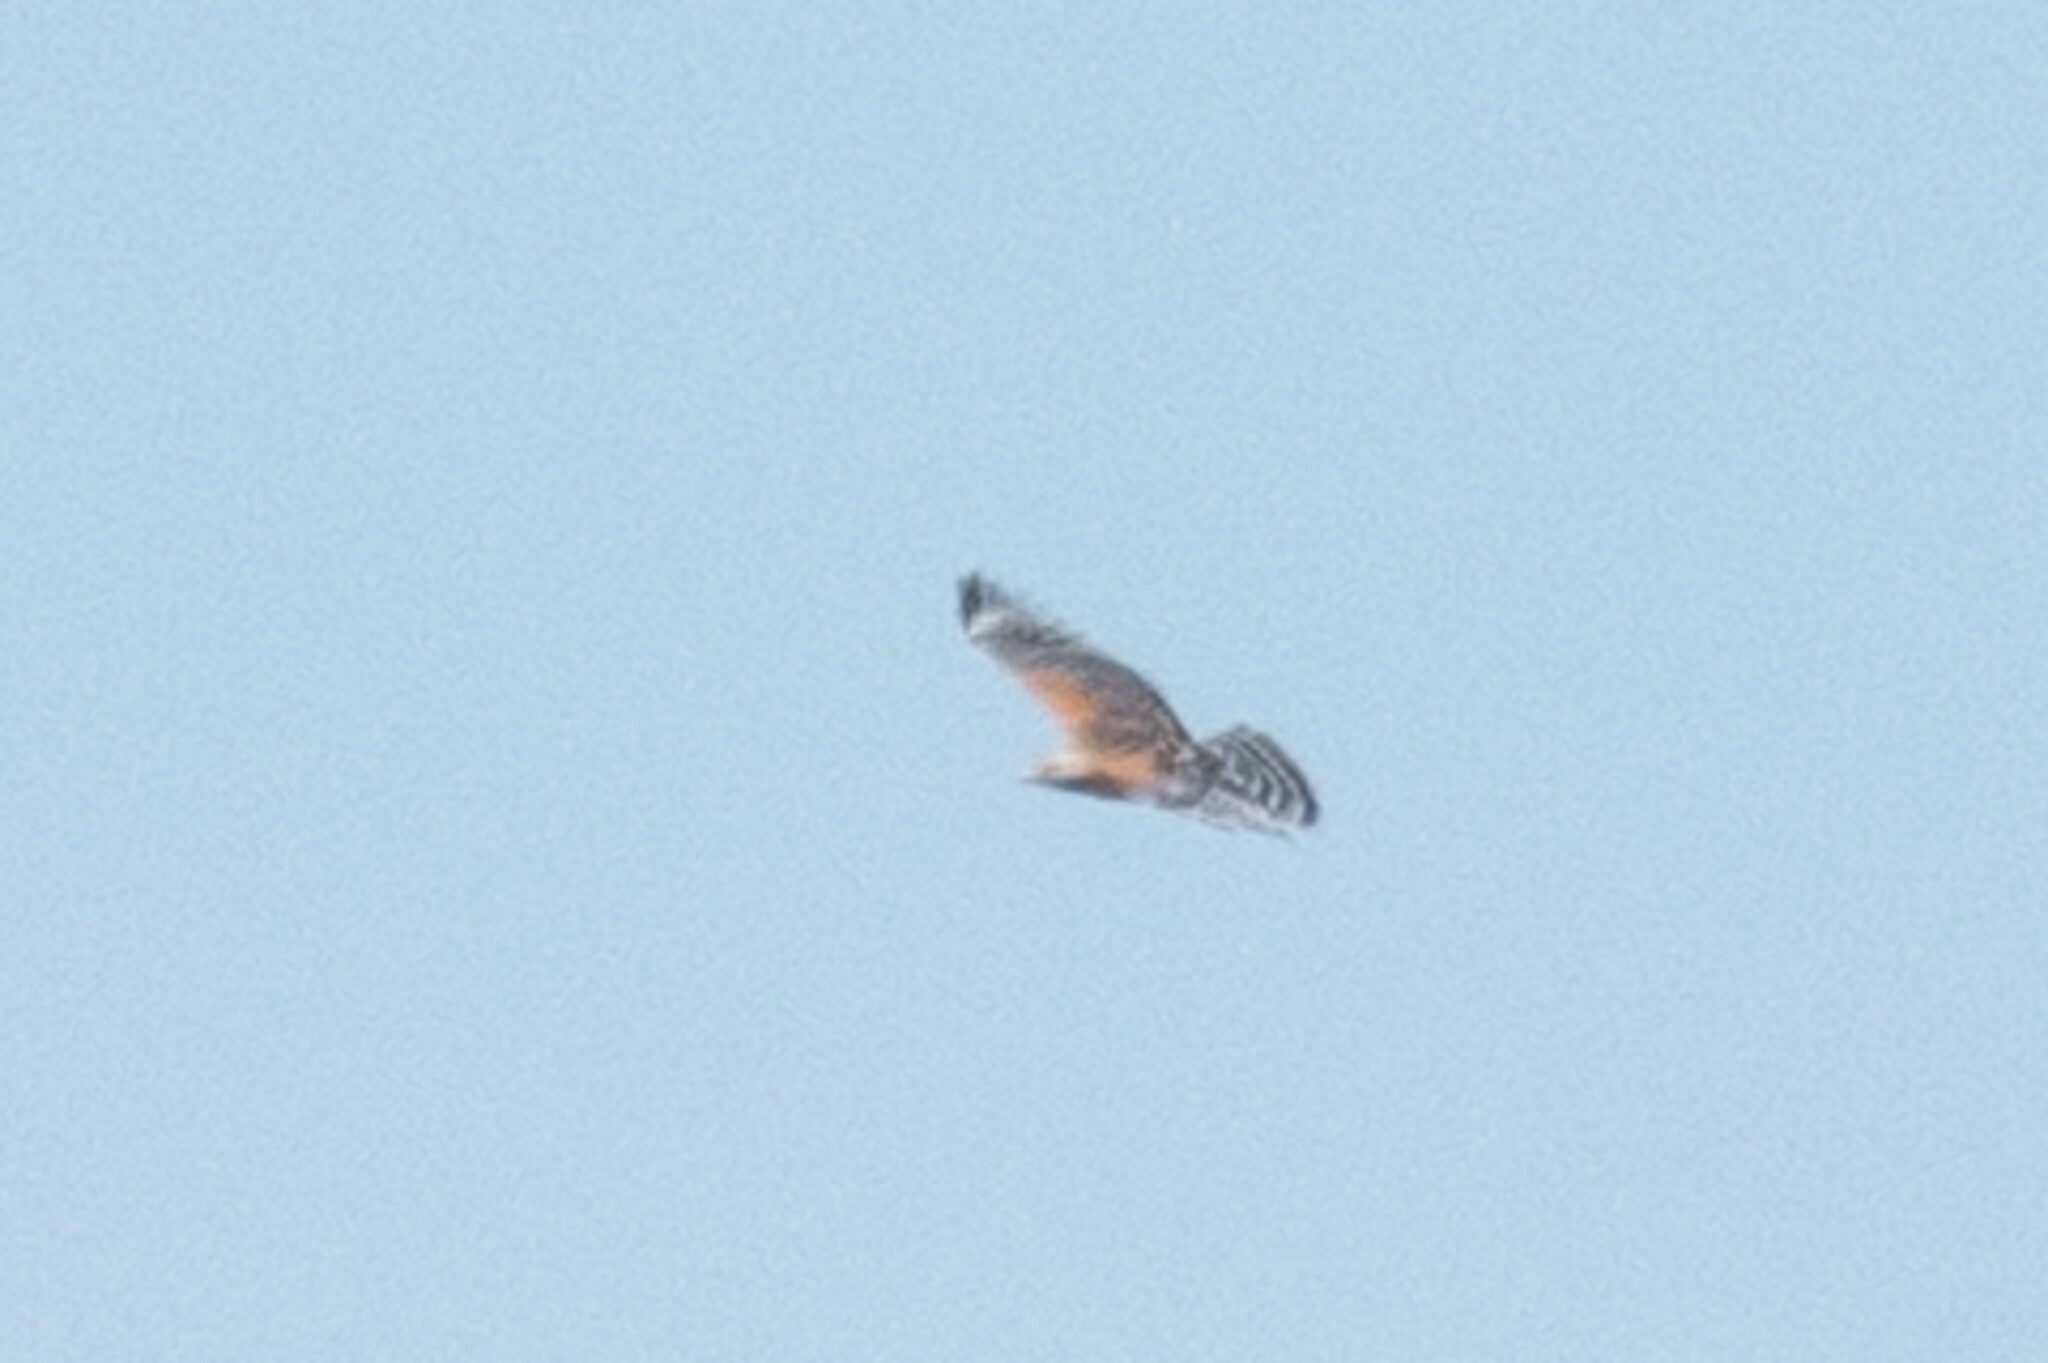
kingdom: Animalia
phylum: Chordata
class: Aves
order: Accipitriformes
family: Accipitridae
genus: Buteo
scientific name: Buteo lineatus
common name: Red-shouldered hawk
